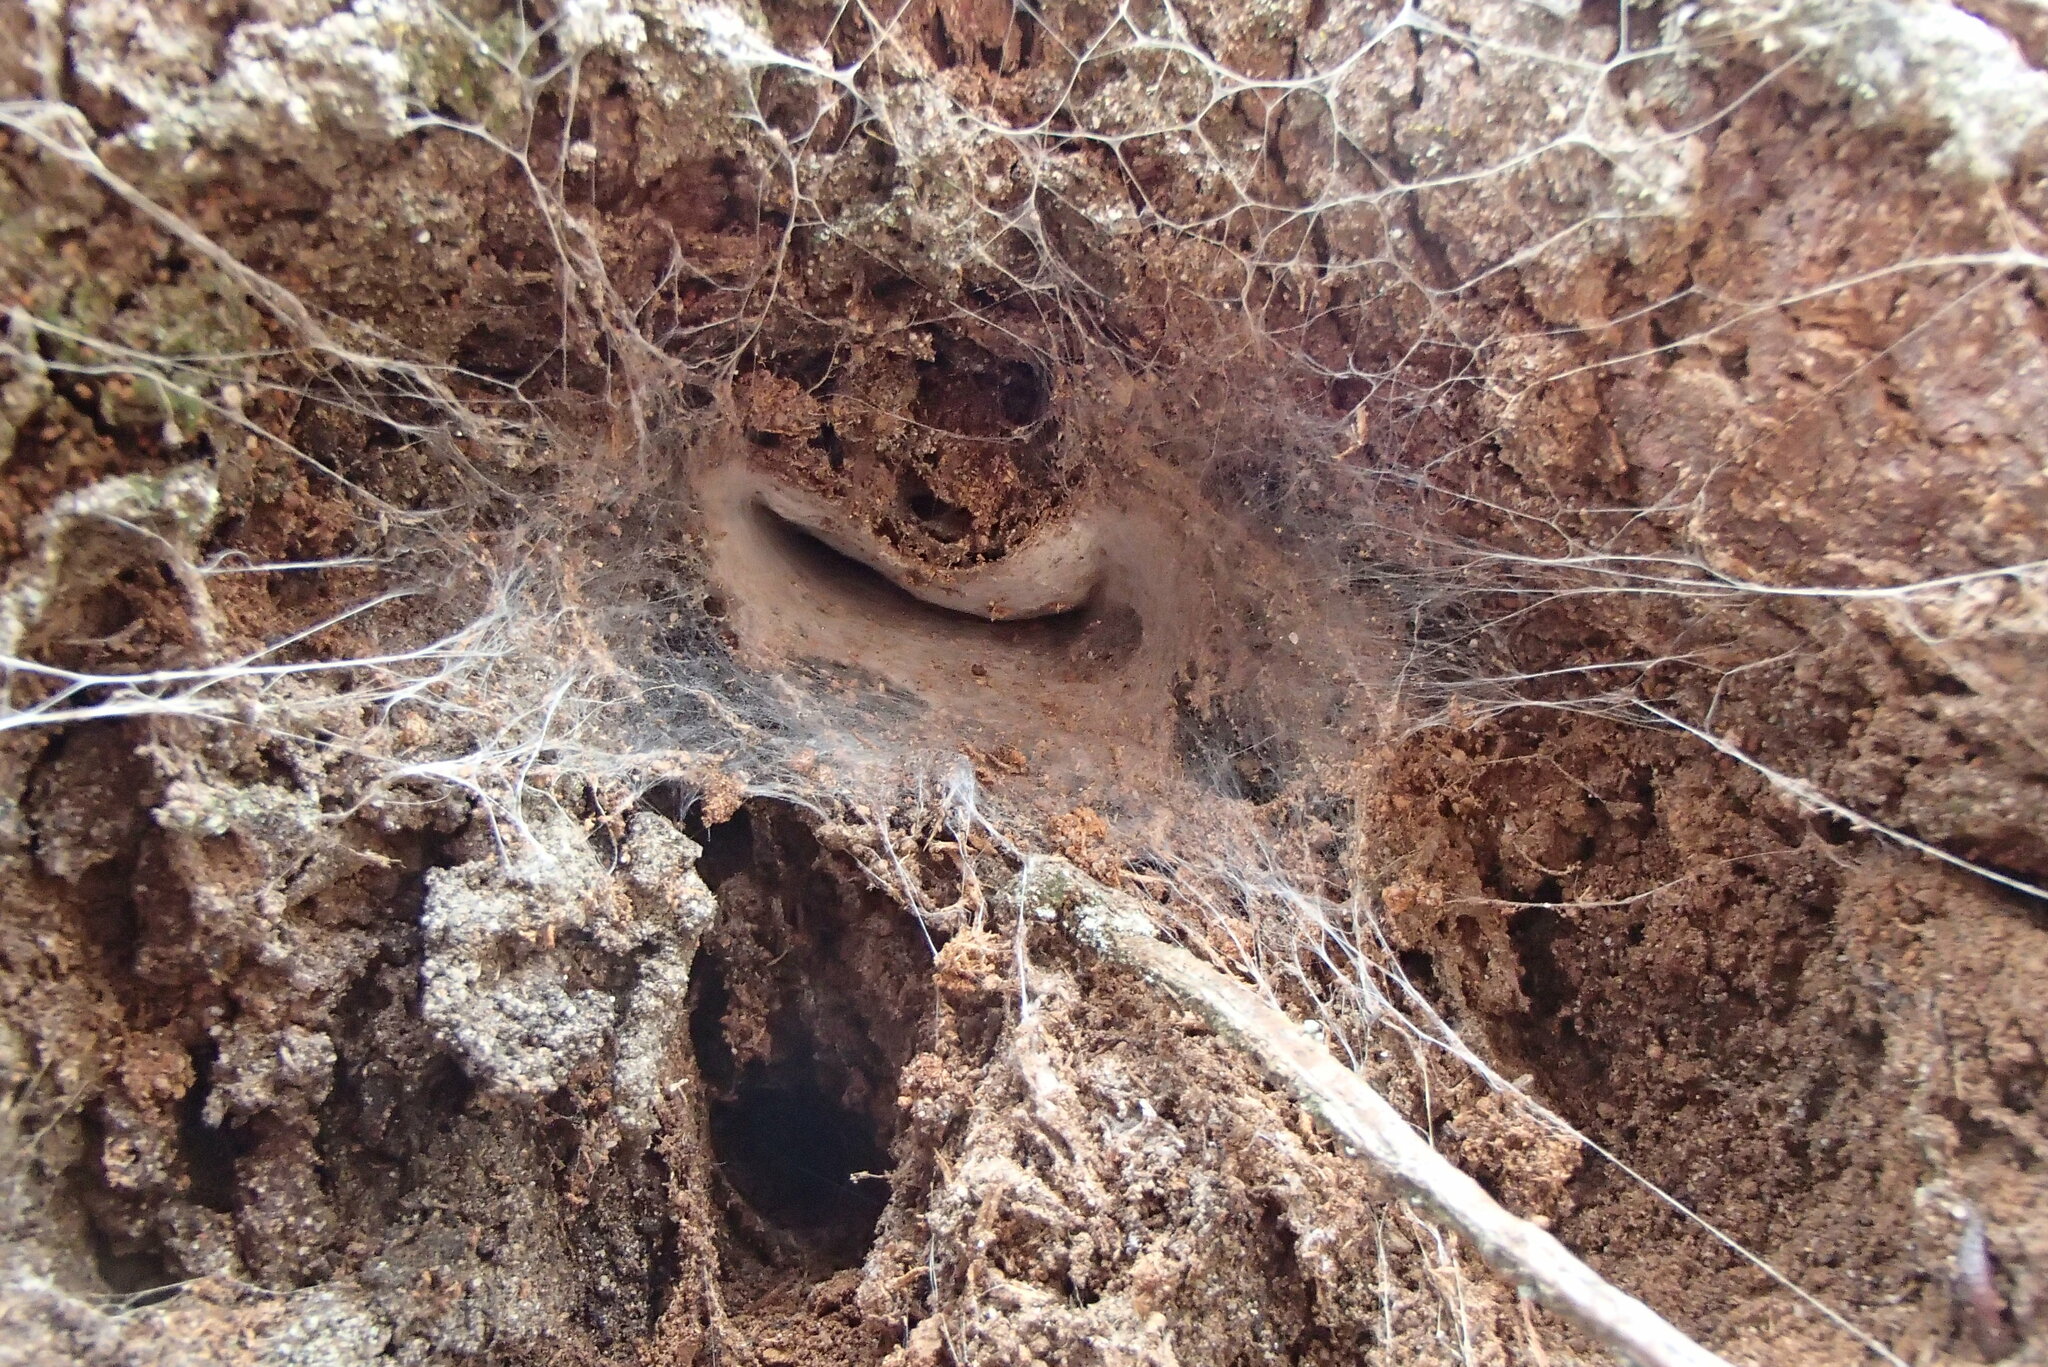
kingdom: Animalia
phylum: Arthropoda
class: Arachnida
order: Araneae
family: Atracidae
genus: Hadronyche
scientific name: Hadronyche versuta
